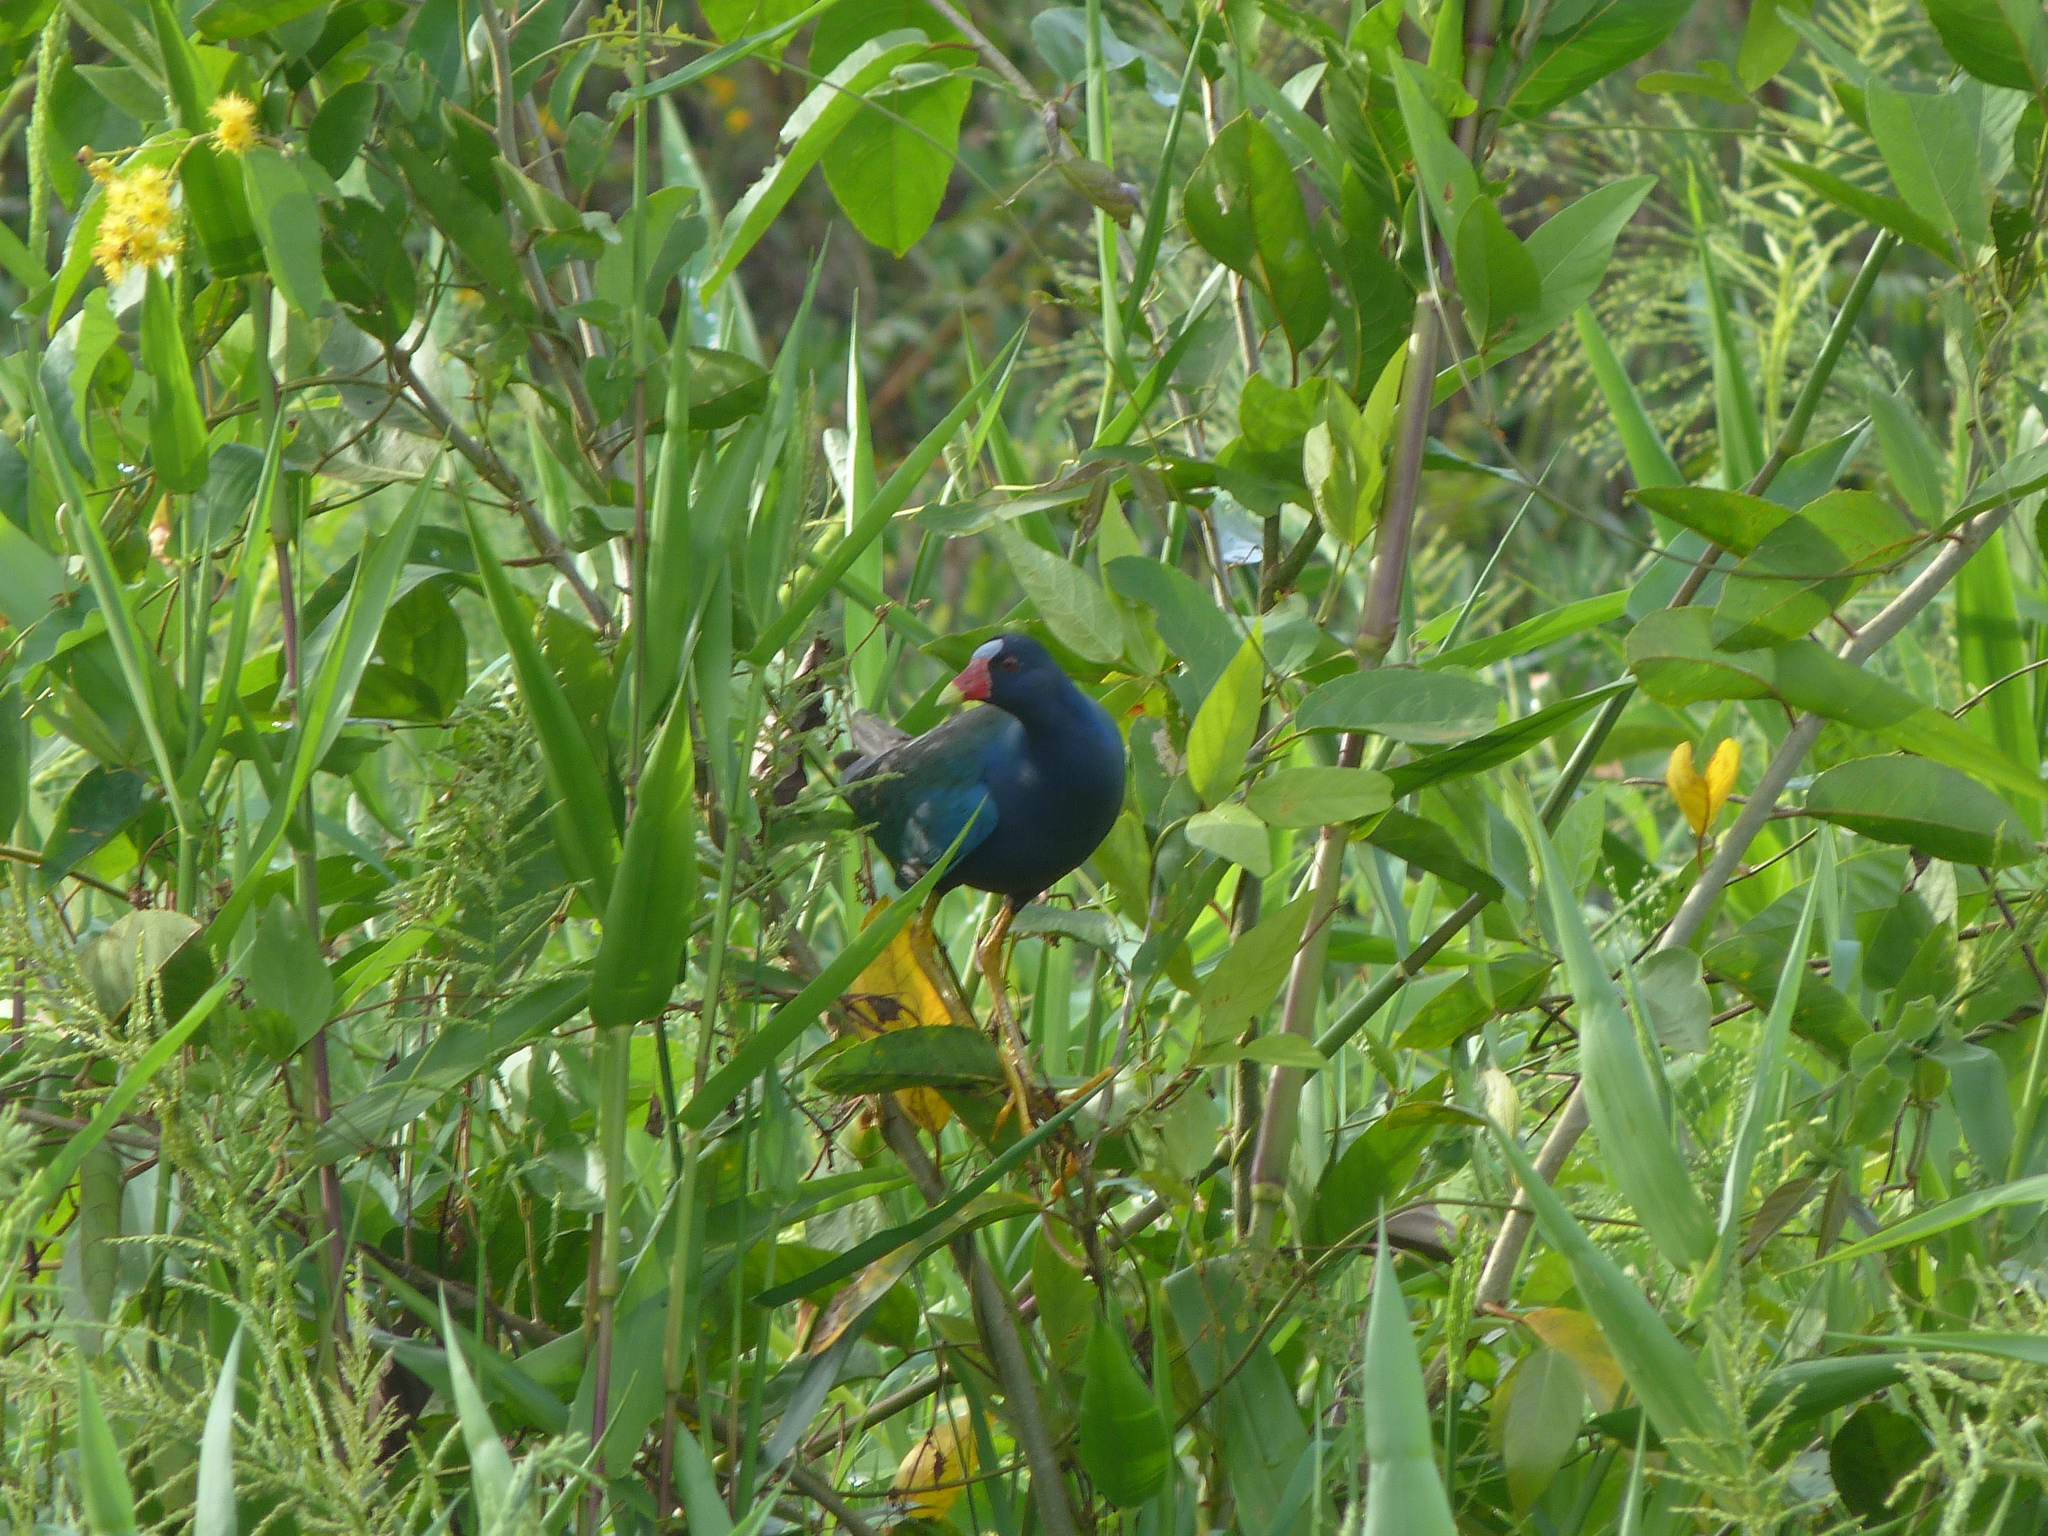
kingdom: Animalia
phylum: Chordata
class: Aves
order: Gruiformes
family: Rallidae
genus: Porphyrio
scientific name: Porphyrio martinica
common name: Purple gallinule
